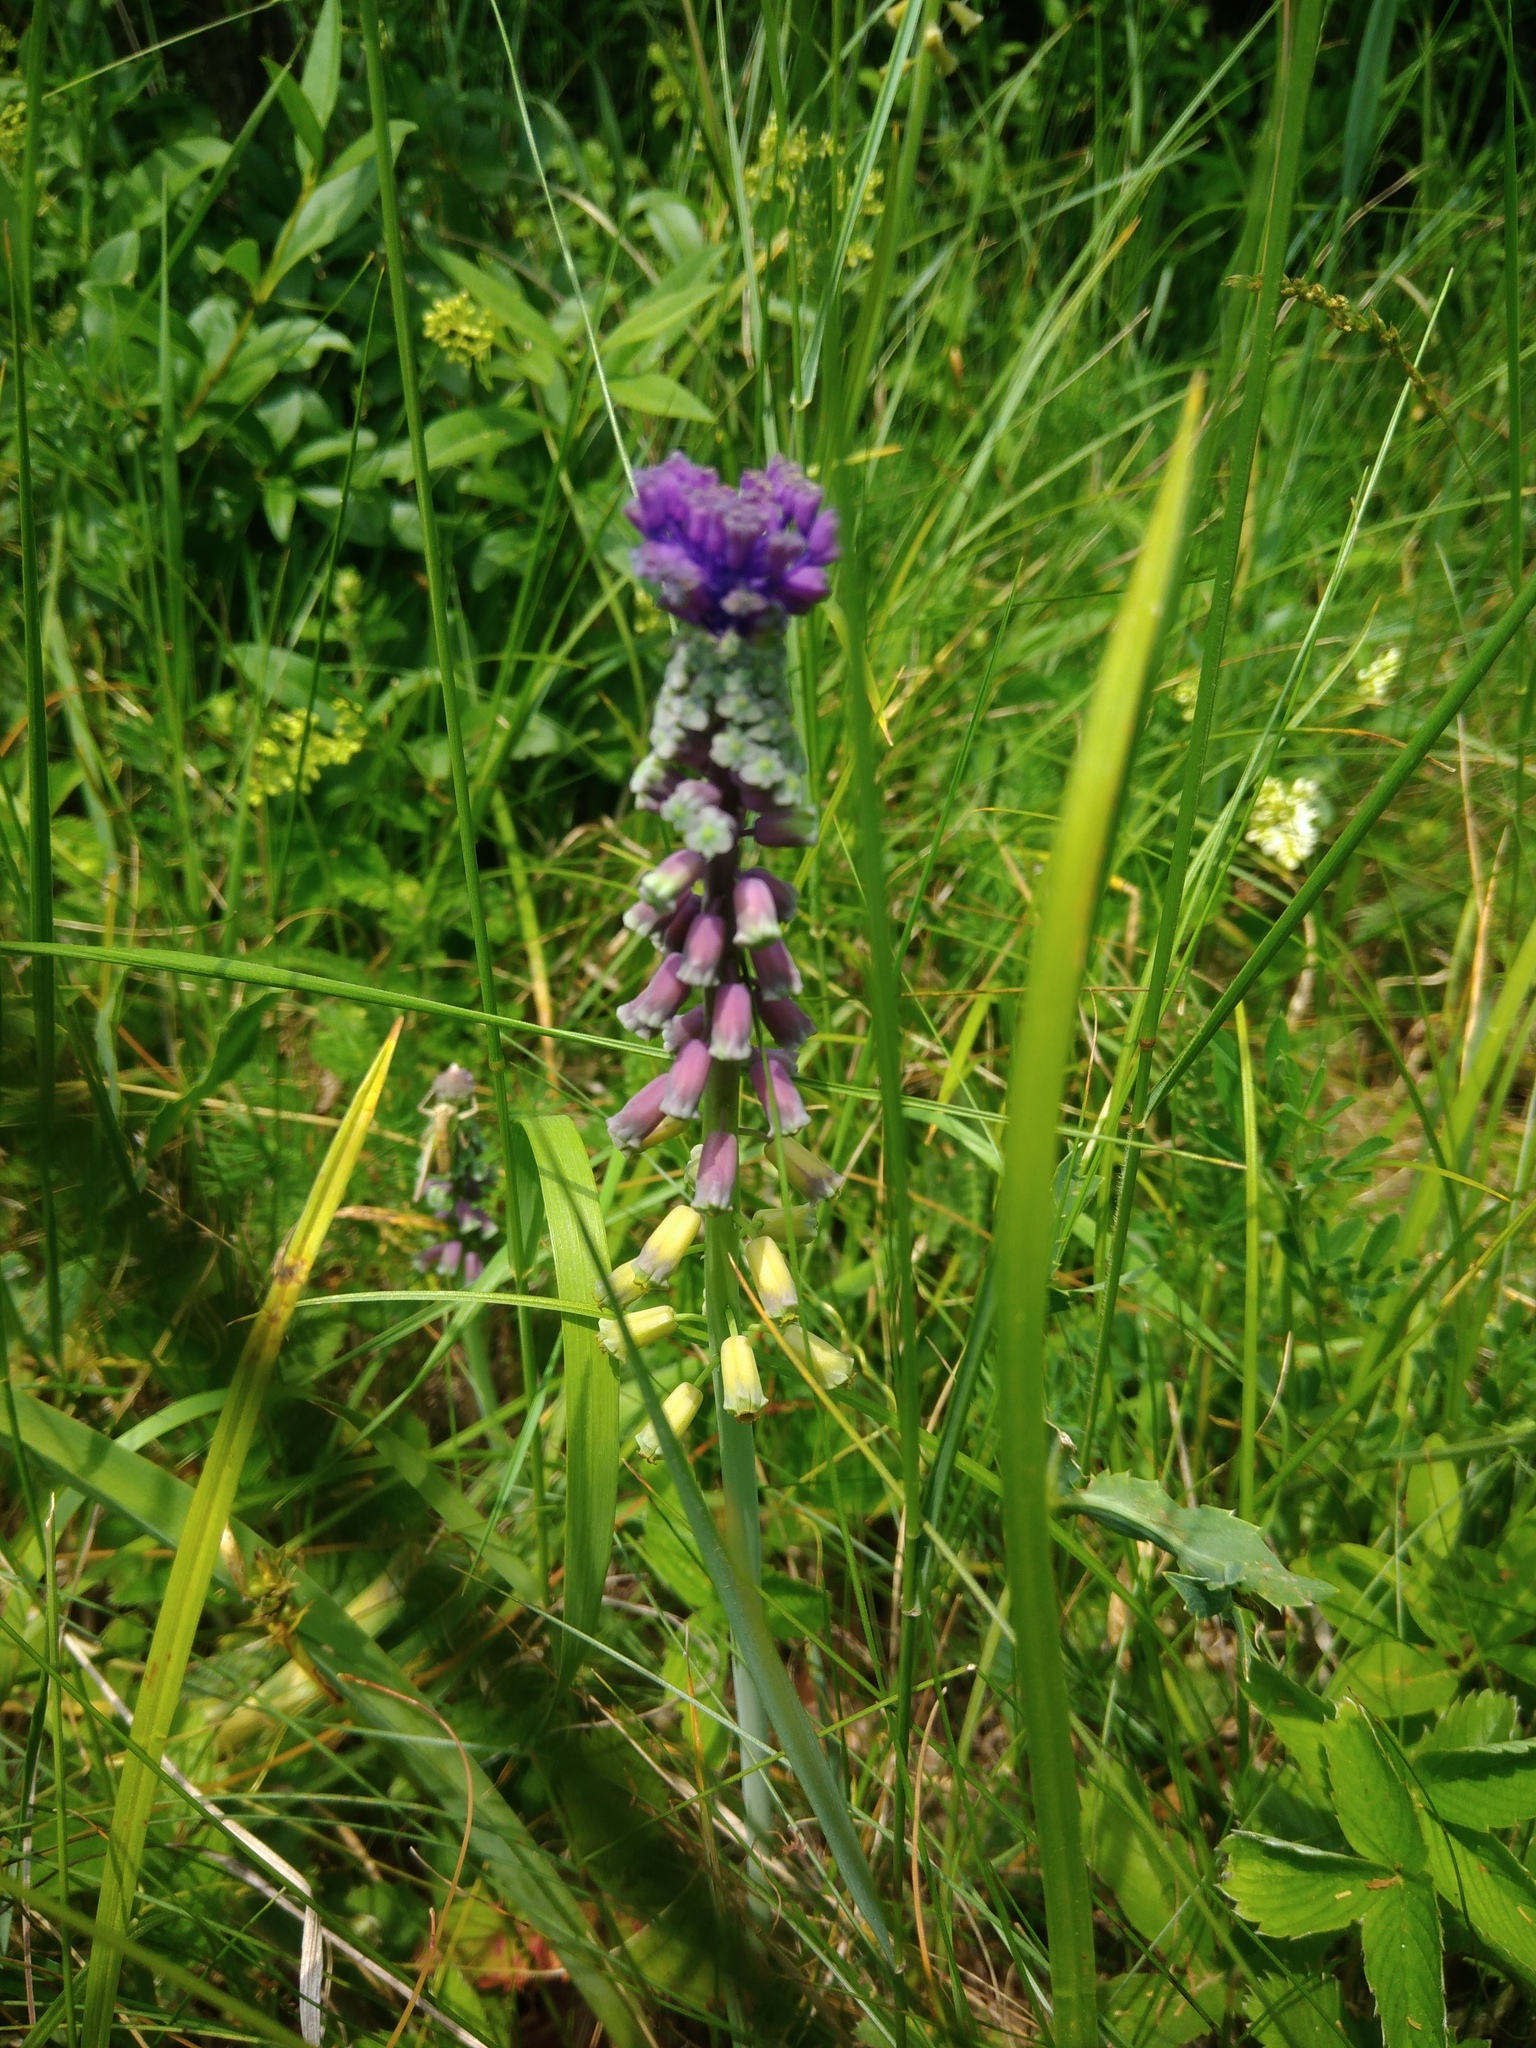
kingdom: Plantae
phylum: Tracheophyta
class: Liliopsida
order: Asparagales
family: Asparagaceae
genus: Muscari
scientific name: Muscari comosum
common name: Tassel hyacinth
